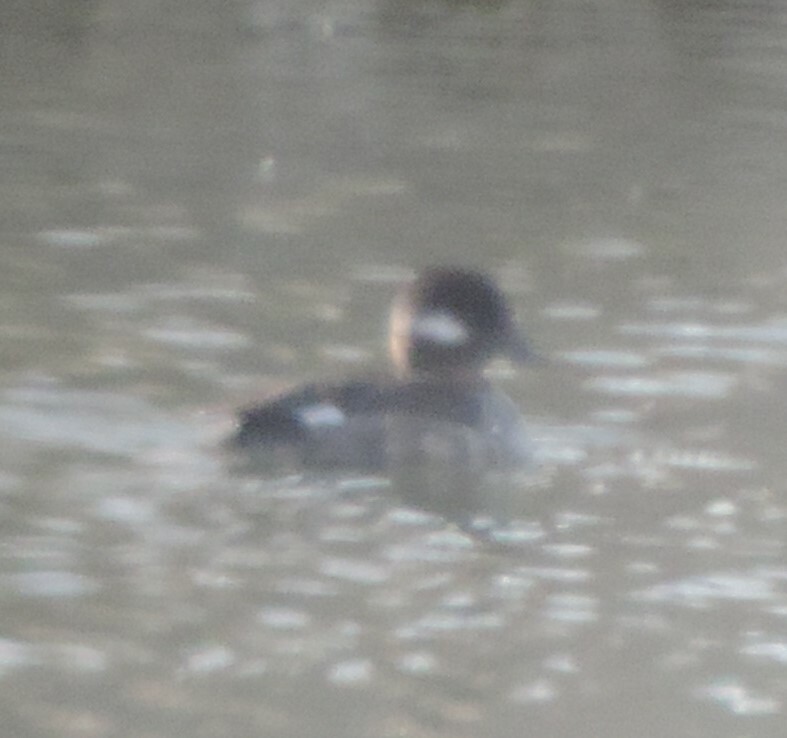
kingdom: Animalia
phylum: Chordata
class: Aves
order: Anseriformes
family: Anatidae
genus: Bucephala
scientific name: Bucephala albeola
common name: Bufflehead
